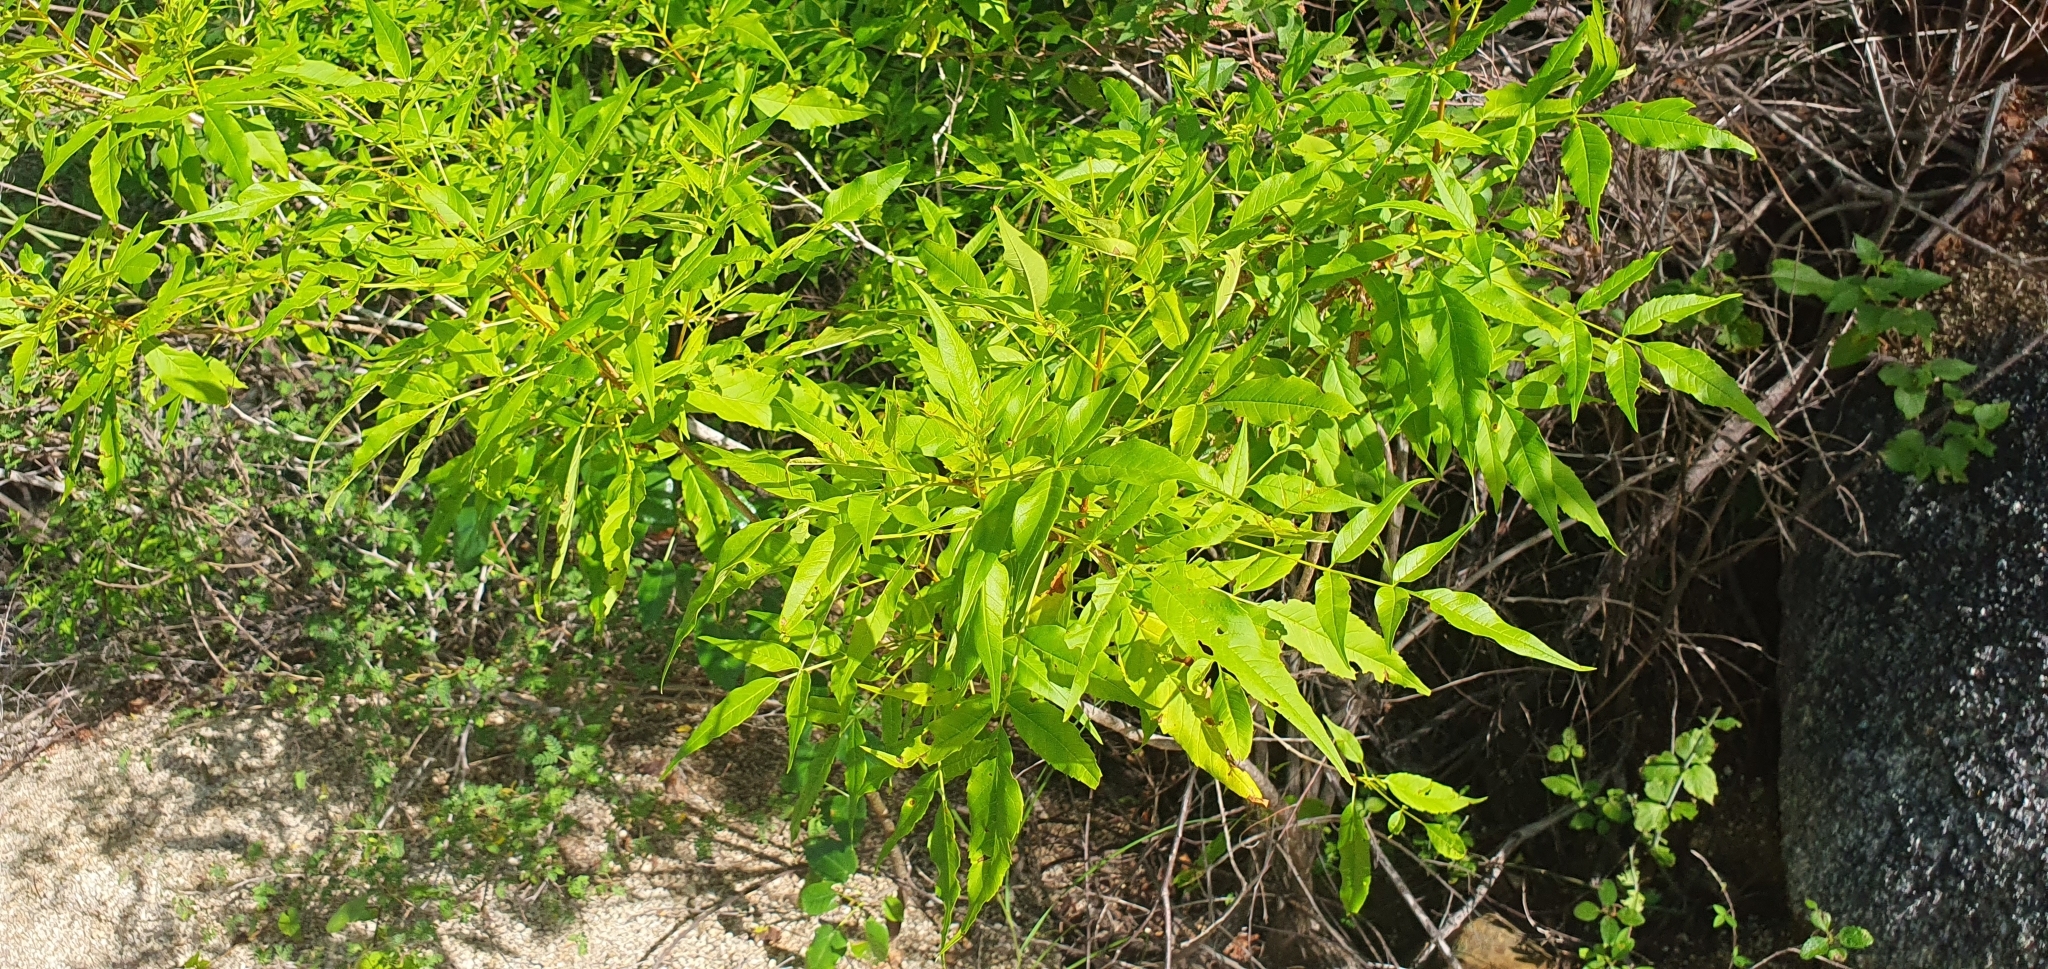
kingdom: Plantae
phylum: Tracheophyta
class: Magnoliopsida
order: Lamiales
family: Bignoniaceae
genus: Tecoma
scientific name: Tecoma stans
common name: Yellow trumpetbush
